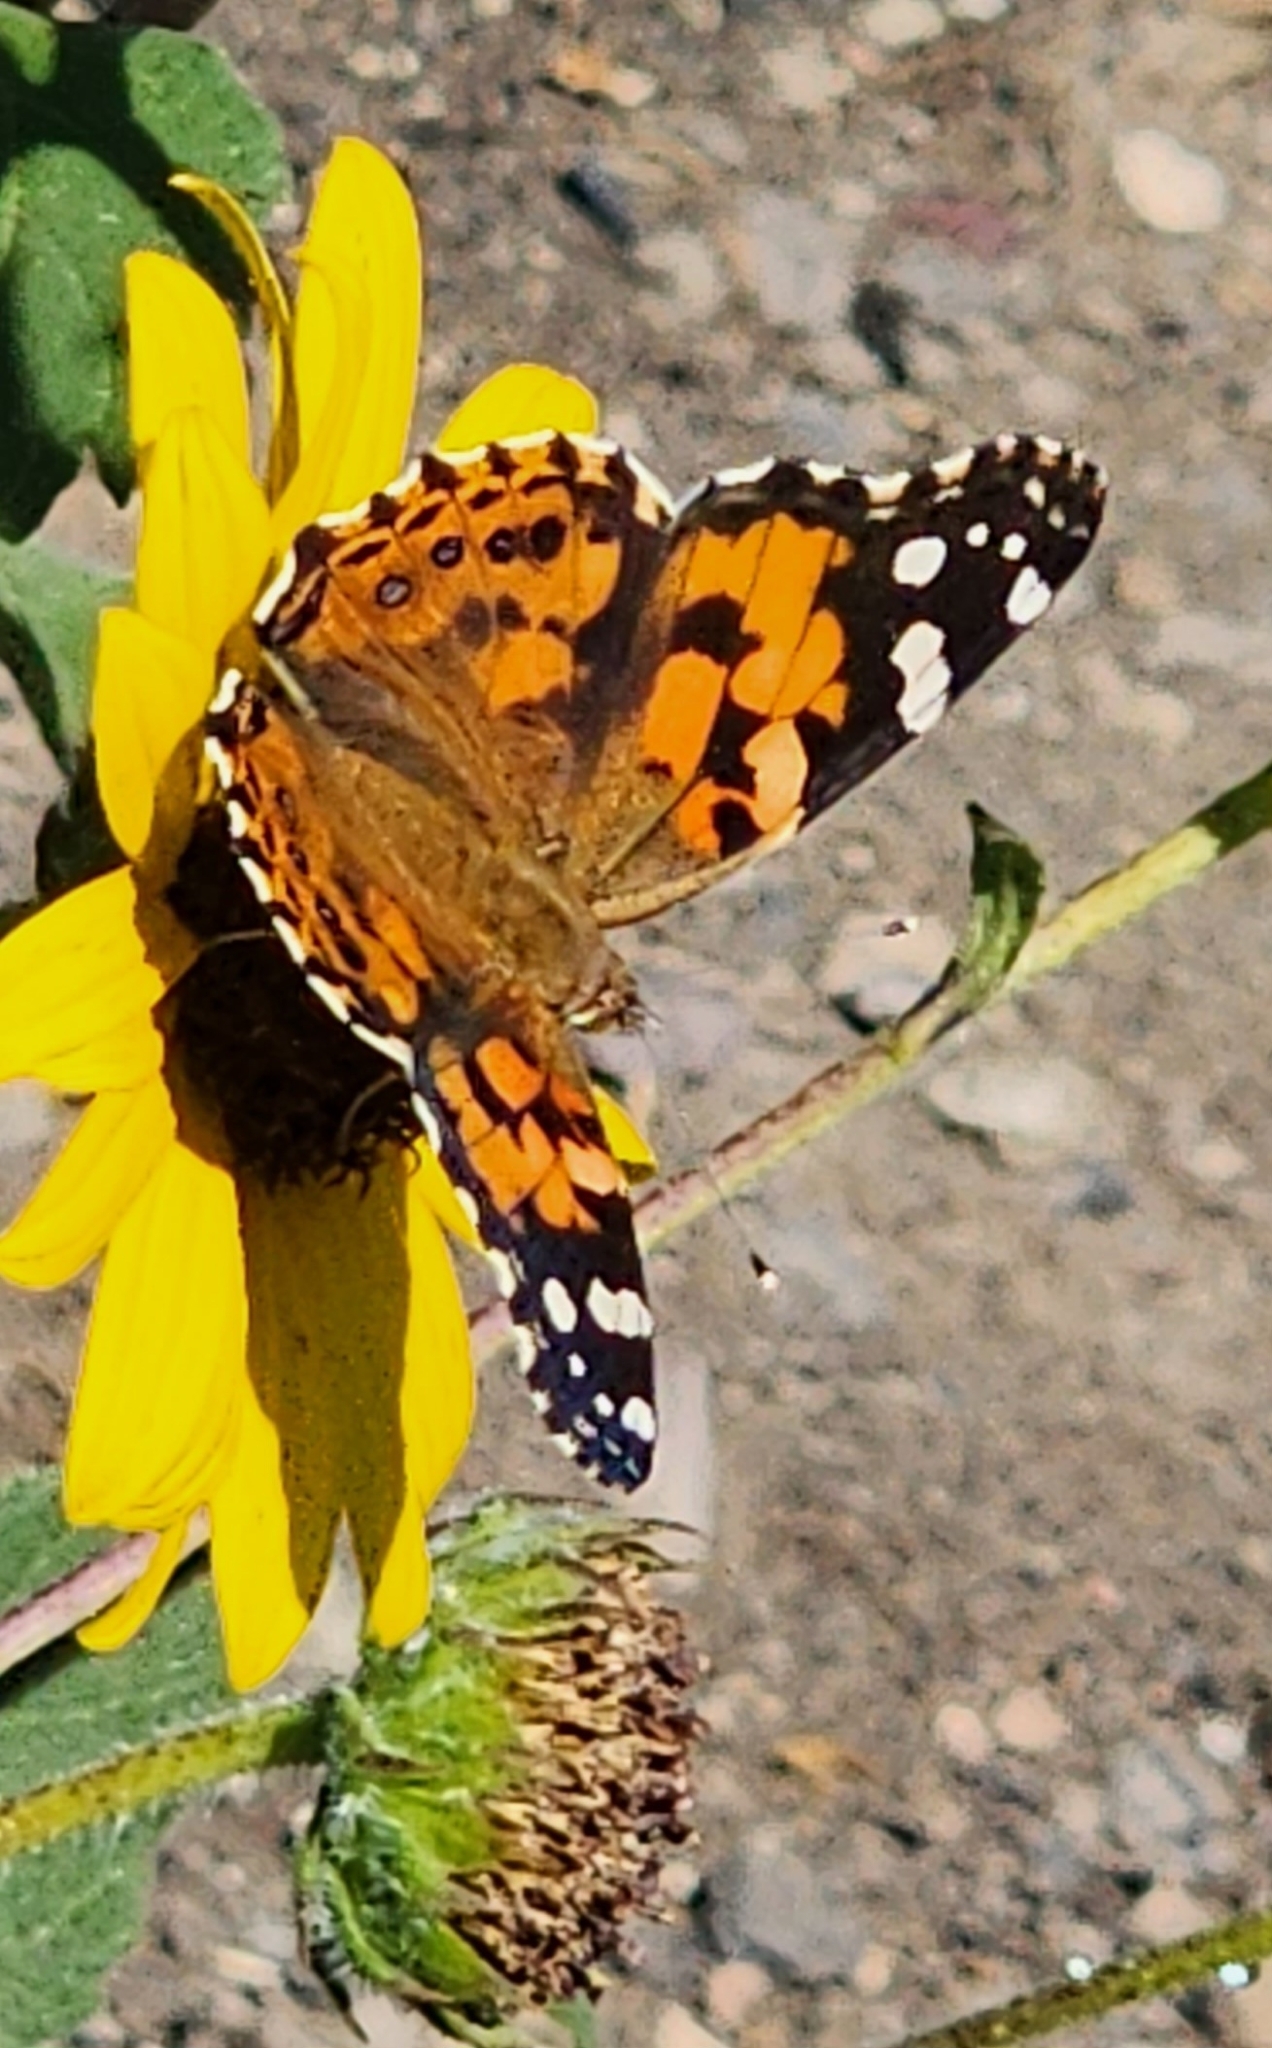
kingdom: Animalia
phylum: Arthropoda
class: Insecta
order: Lepidoptera
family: Nymphalidae
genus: Vanessa
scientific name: Vanessa cardui
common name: Painted lady
